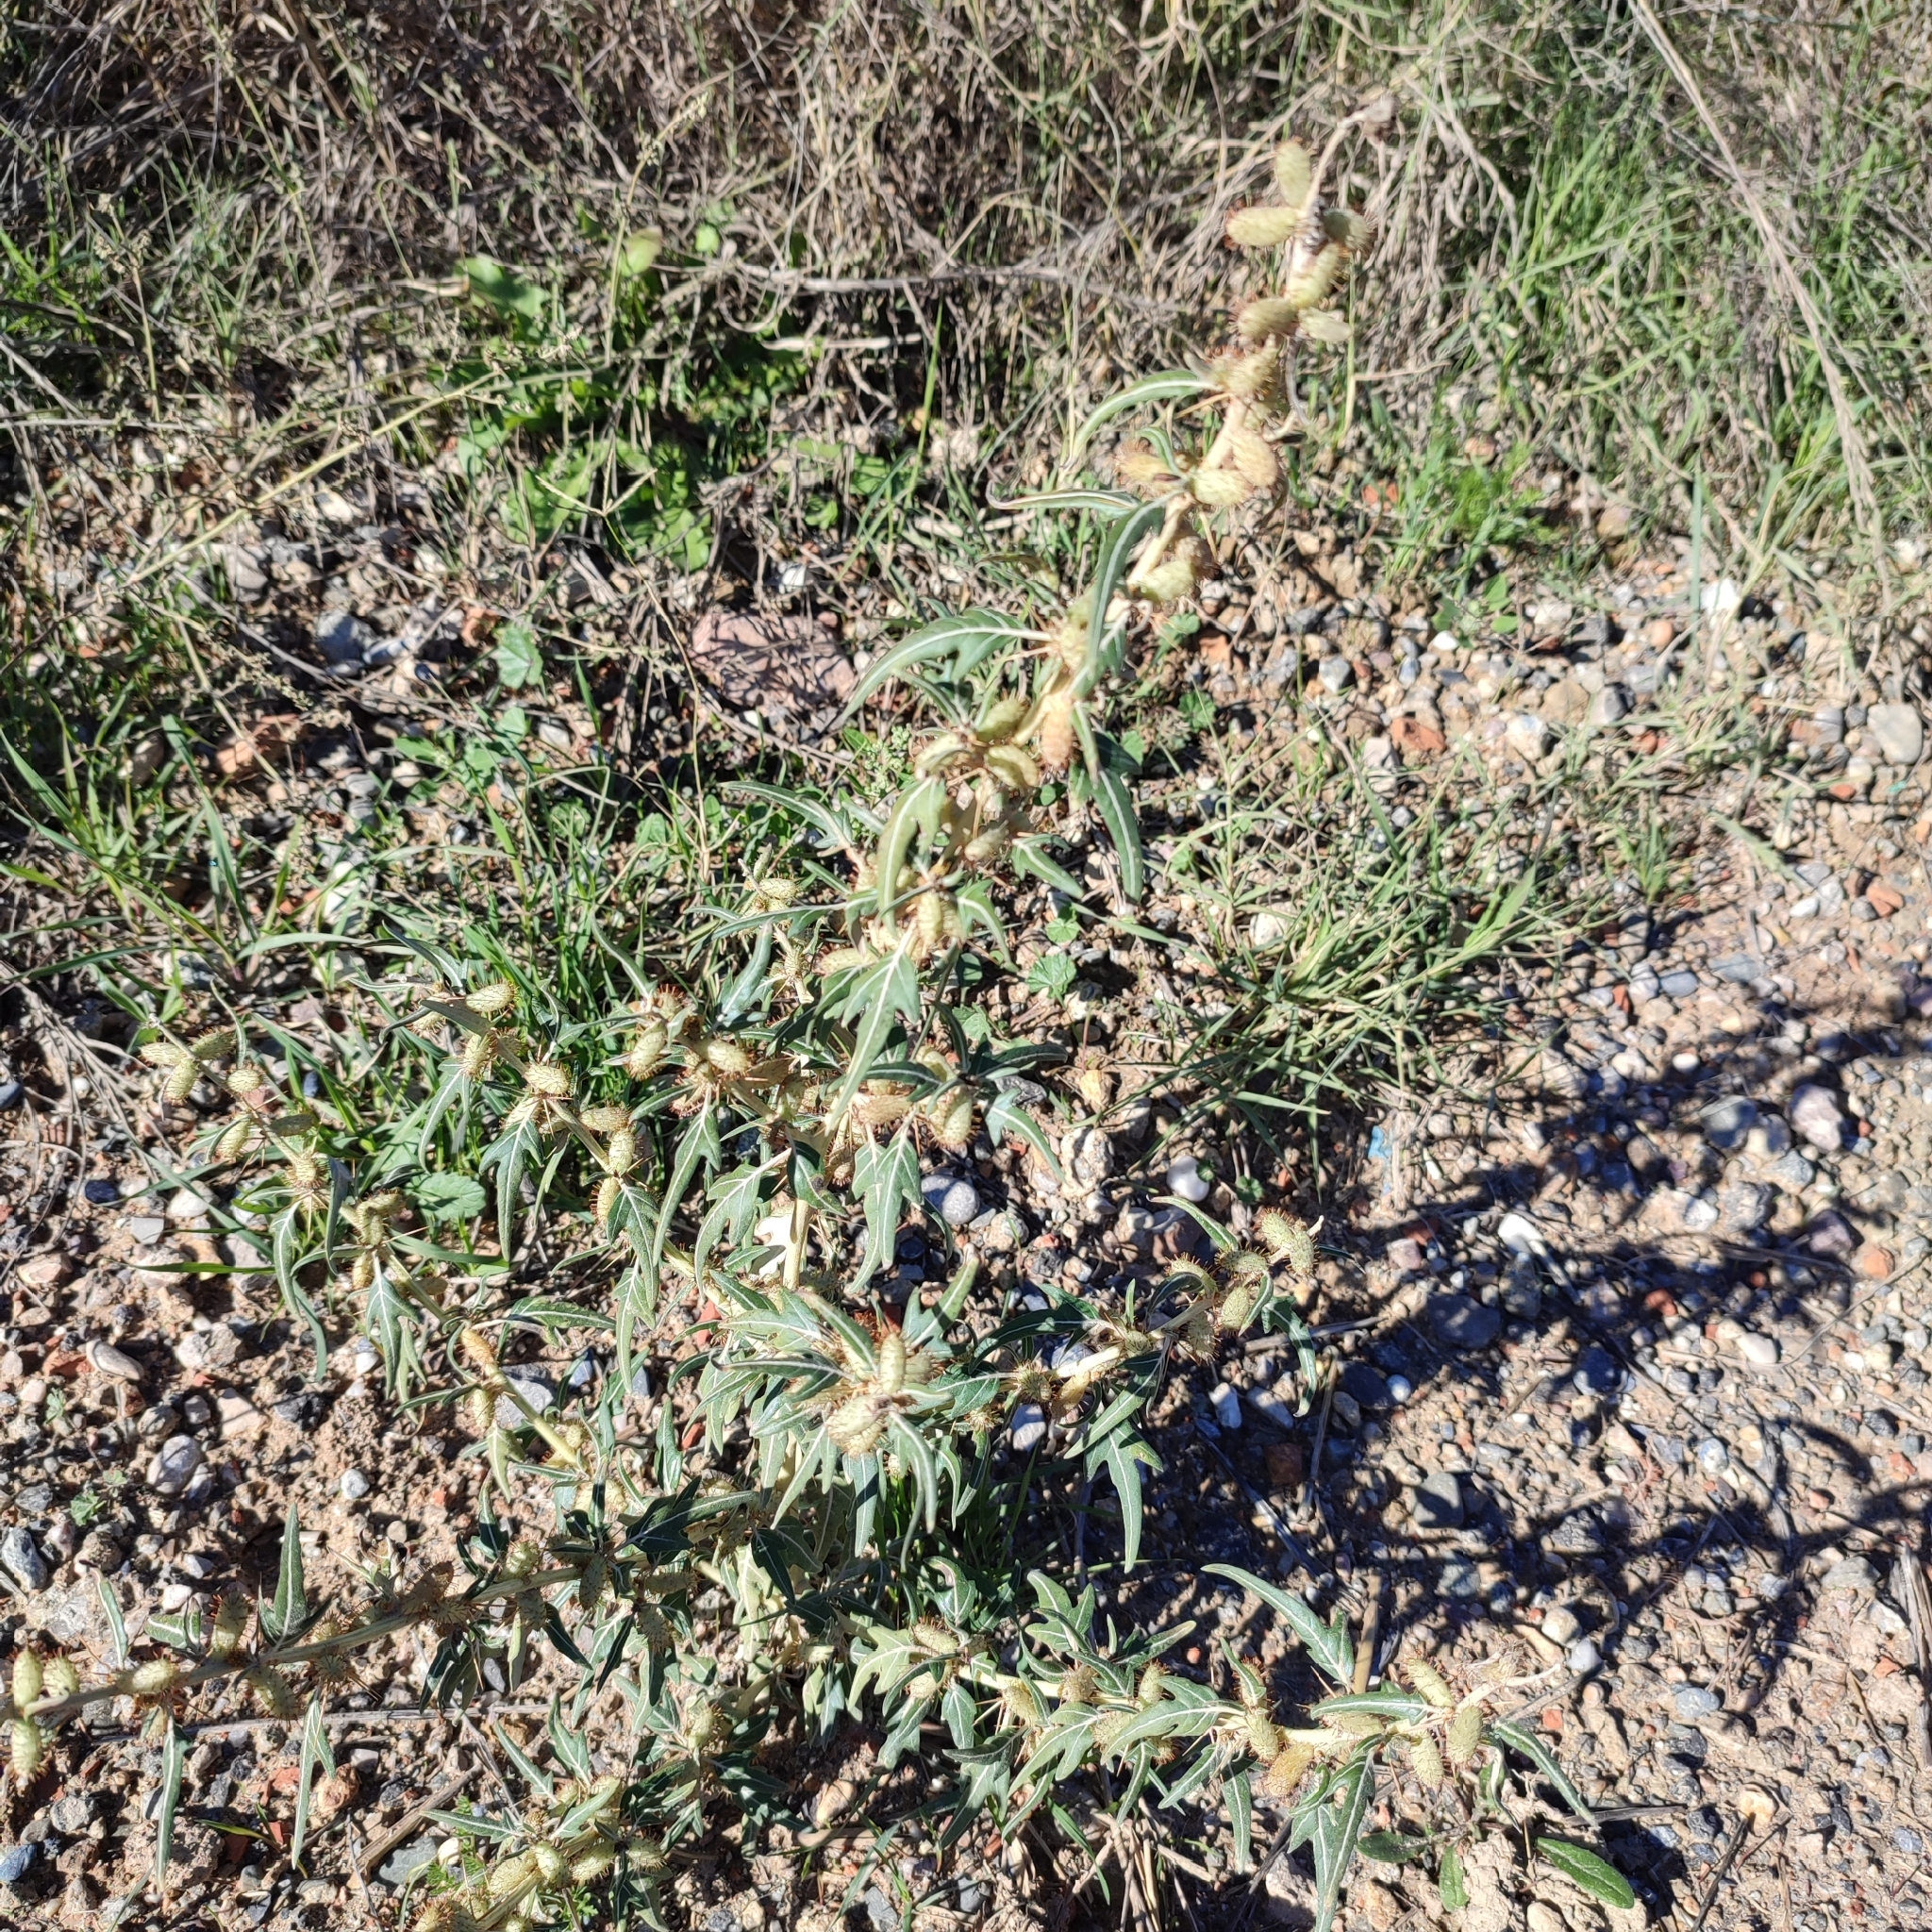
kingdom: Plantae
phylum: Tracheophyta
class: Magnoliopsida
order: Asterales
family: Asteraceae
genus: Xanthium
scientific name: Xanthium spinosum
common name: Spiny cocklebur
